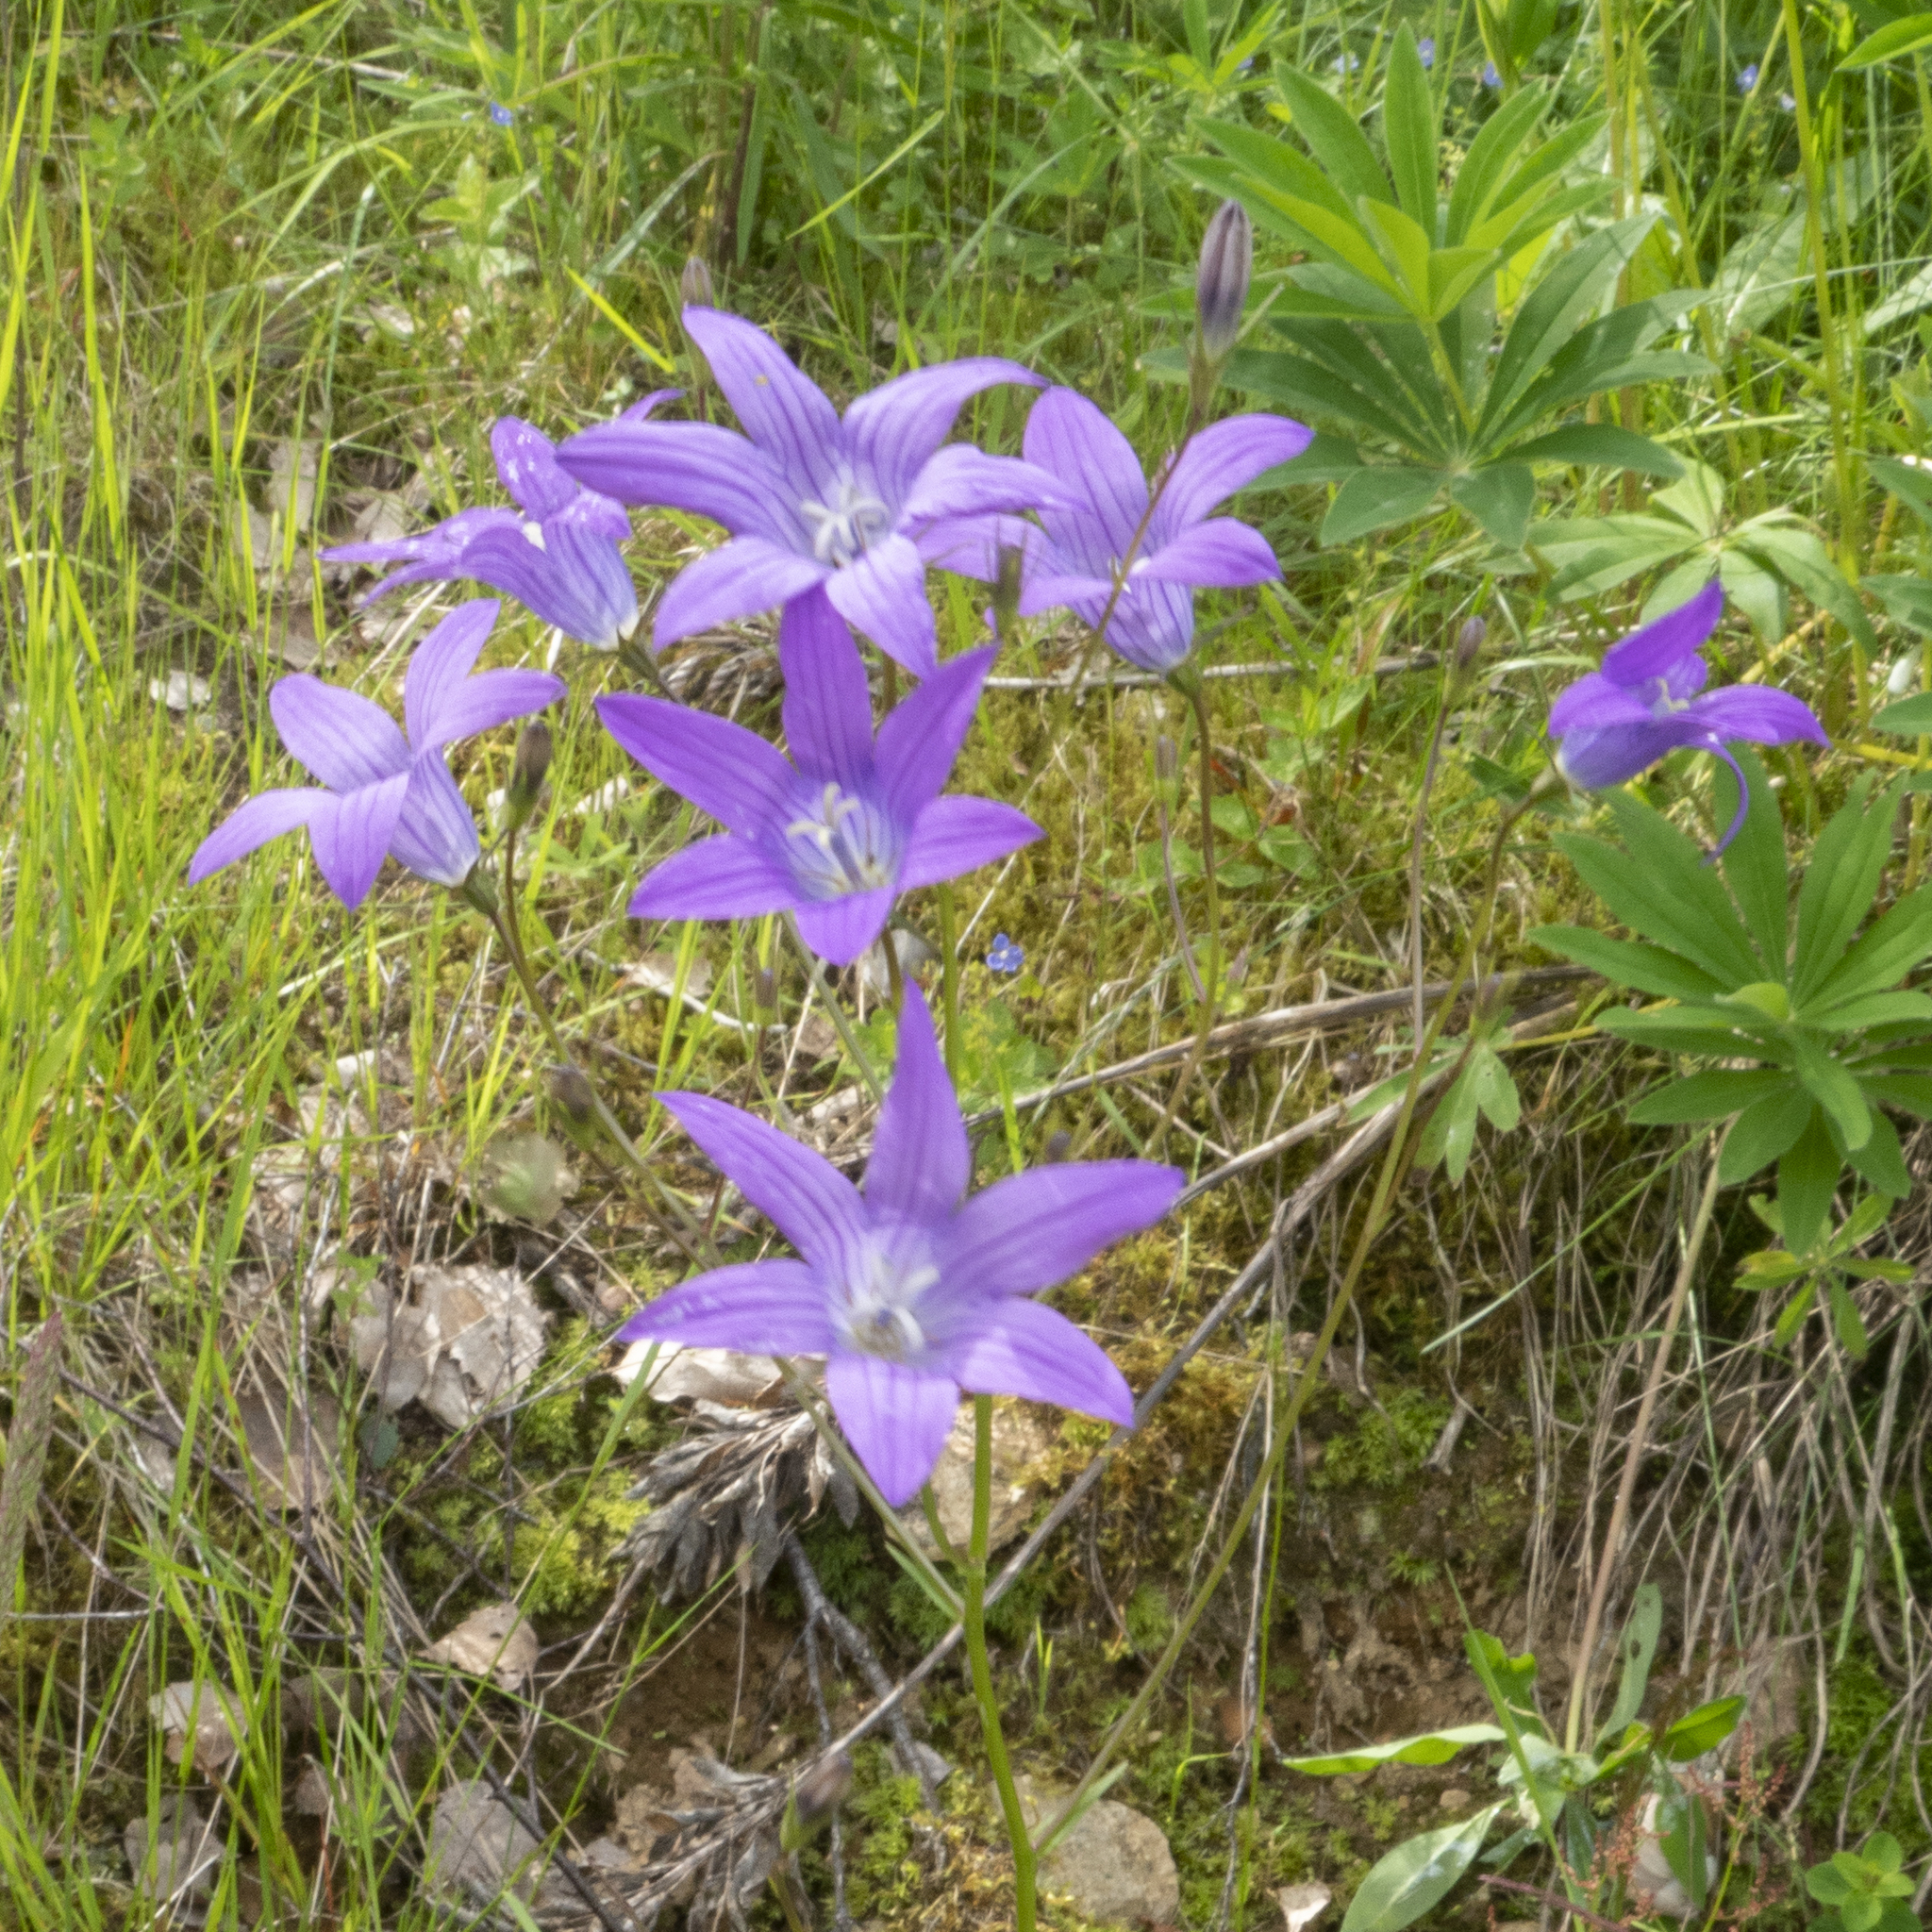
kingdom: Plantae
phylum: Tracheophyta
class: Magnoliopsida
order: Asterales
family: Campanulaceae
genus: Campanula
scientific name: Campanula patula
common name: Spreading bellflower
